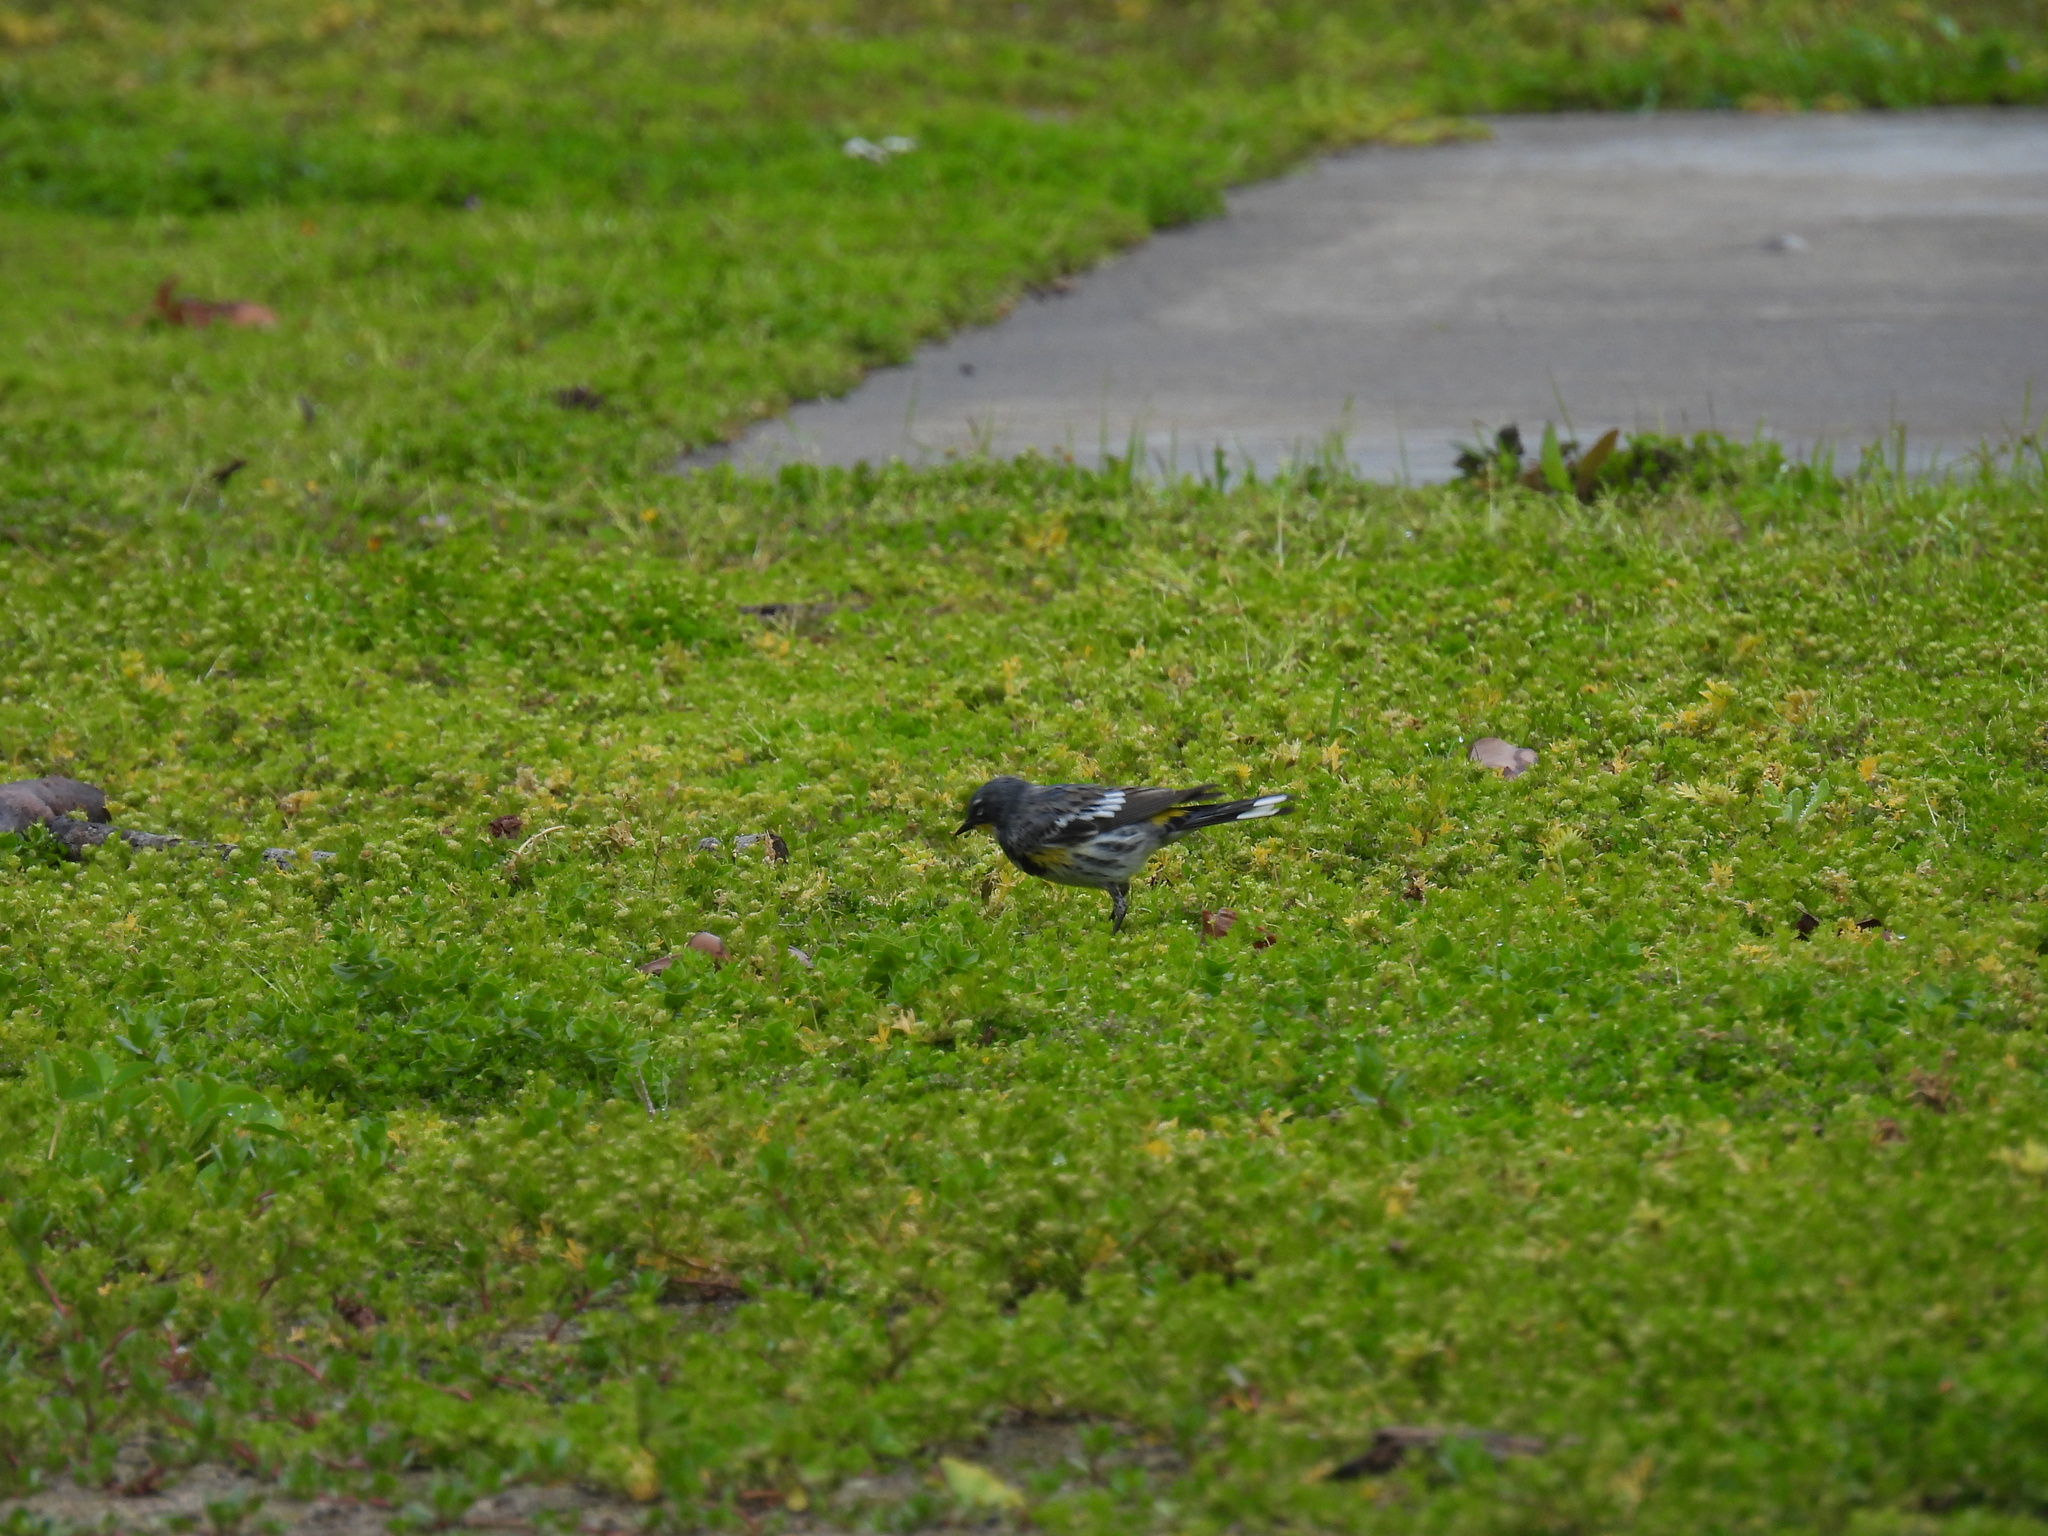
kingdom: Animalia
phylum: Chordata
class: Aves
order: Passeriformes
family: Parulidae
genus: Setophaga
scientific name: Setophaga coronata
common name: Myrtle warbler
